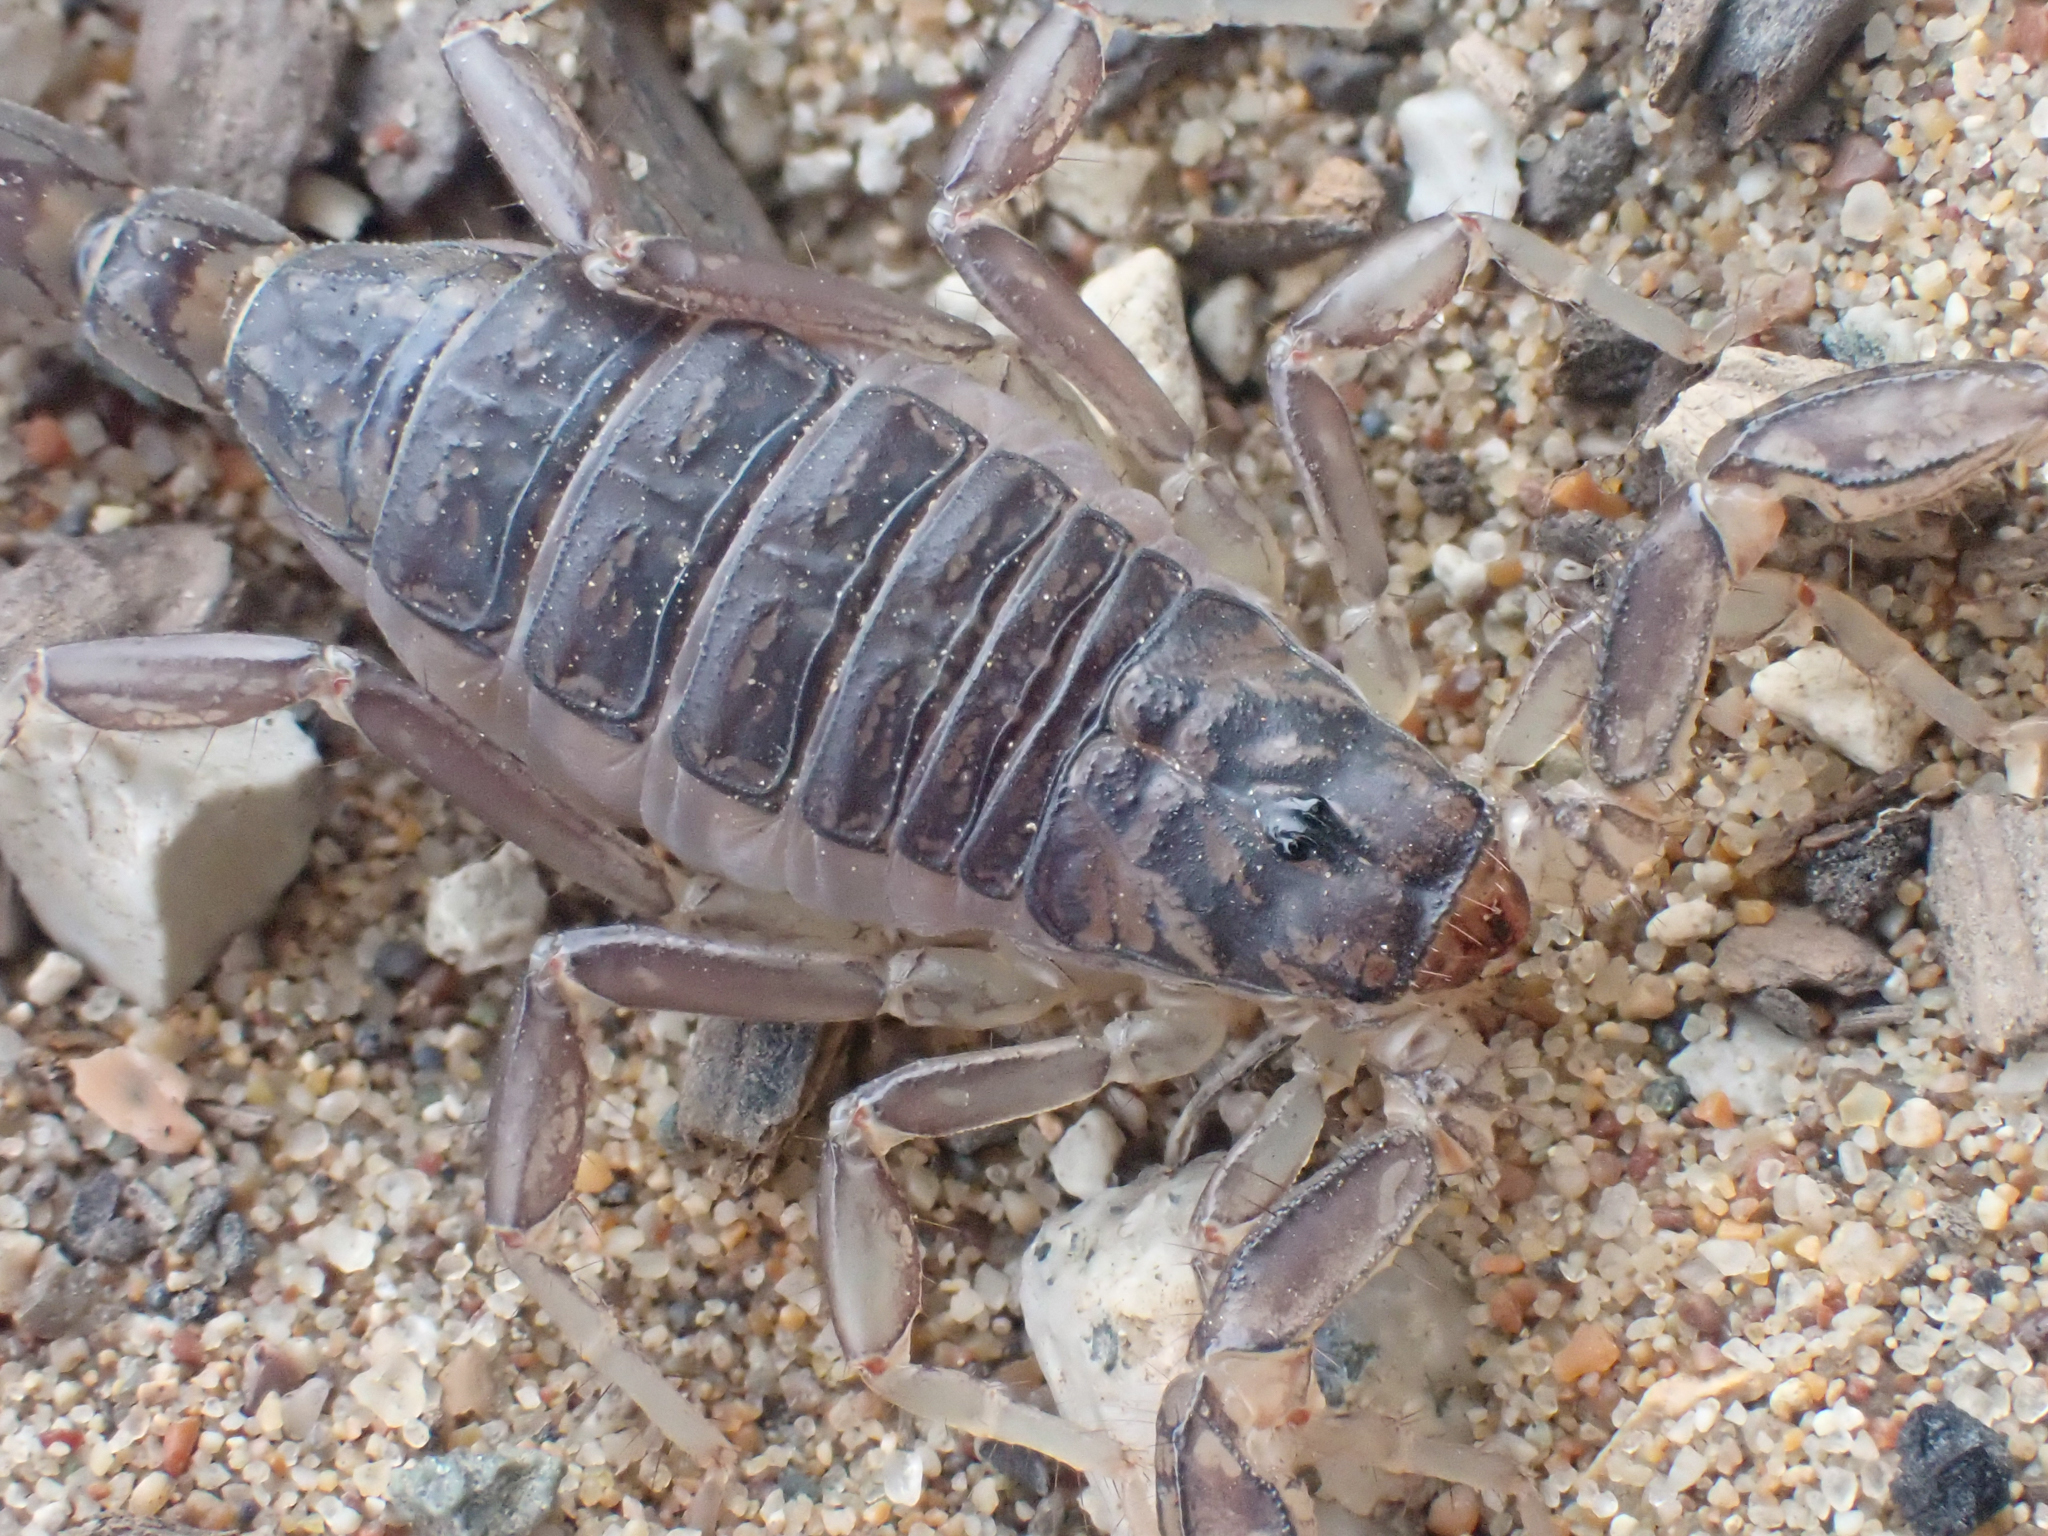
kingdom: Animalia
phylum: Arthropoda
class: Arachnida
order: Scorpiones
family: Vaejovidae
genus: Paruroctonus
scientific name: Paruroctonus silvestrii
